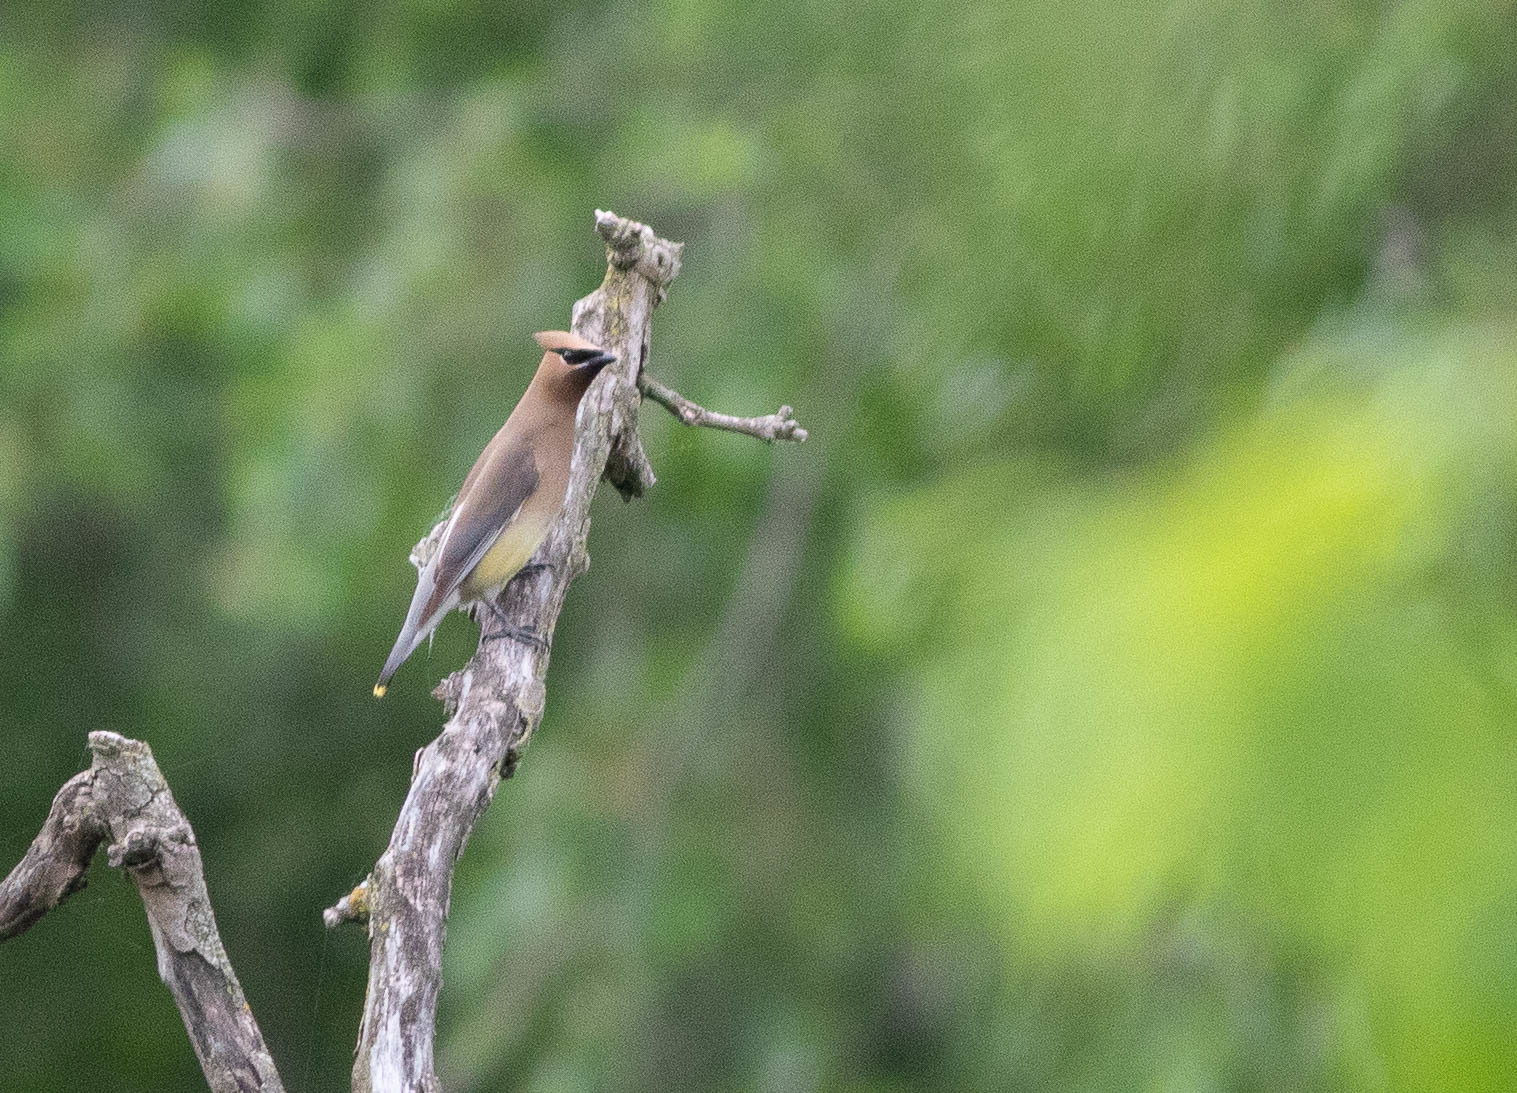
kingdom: Animalia
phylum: Chordata
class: Aves
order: Passeriformes
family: Bombycillidae
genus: Bombycilla
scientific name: Bombycilla cedrorum
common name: Cedar waxwing
